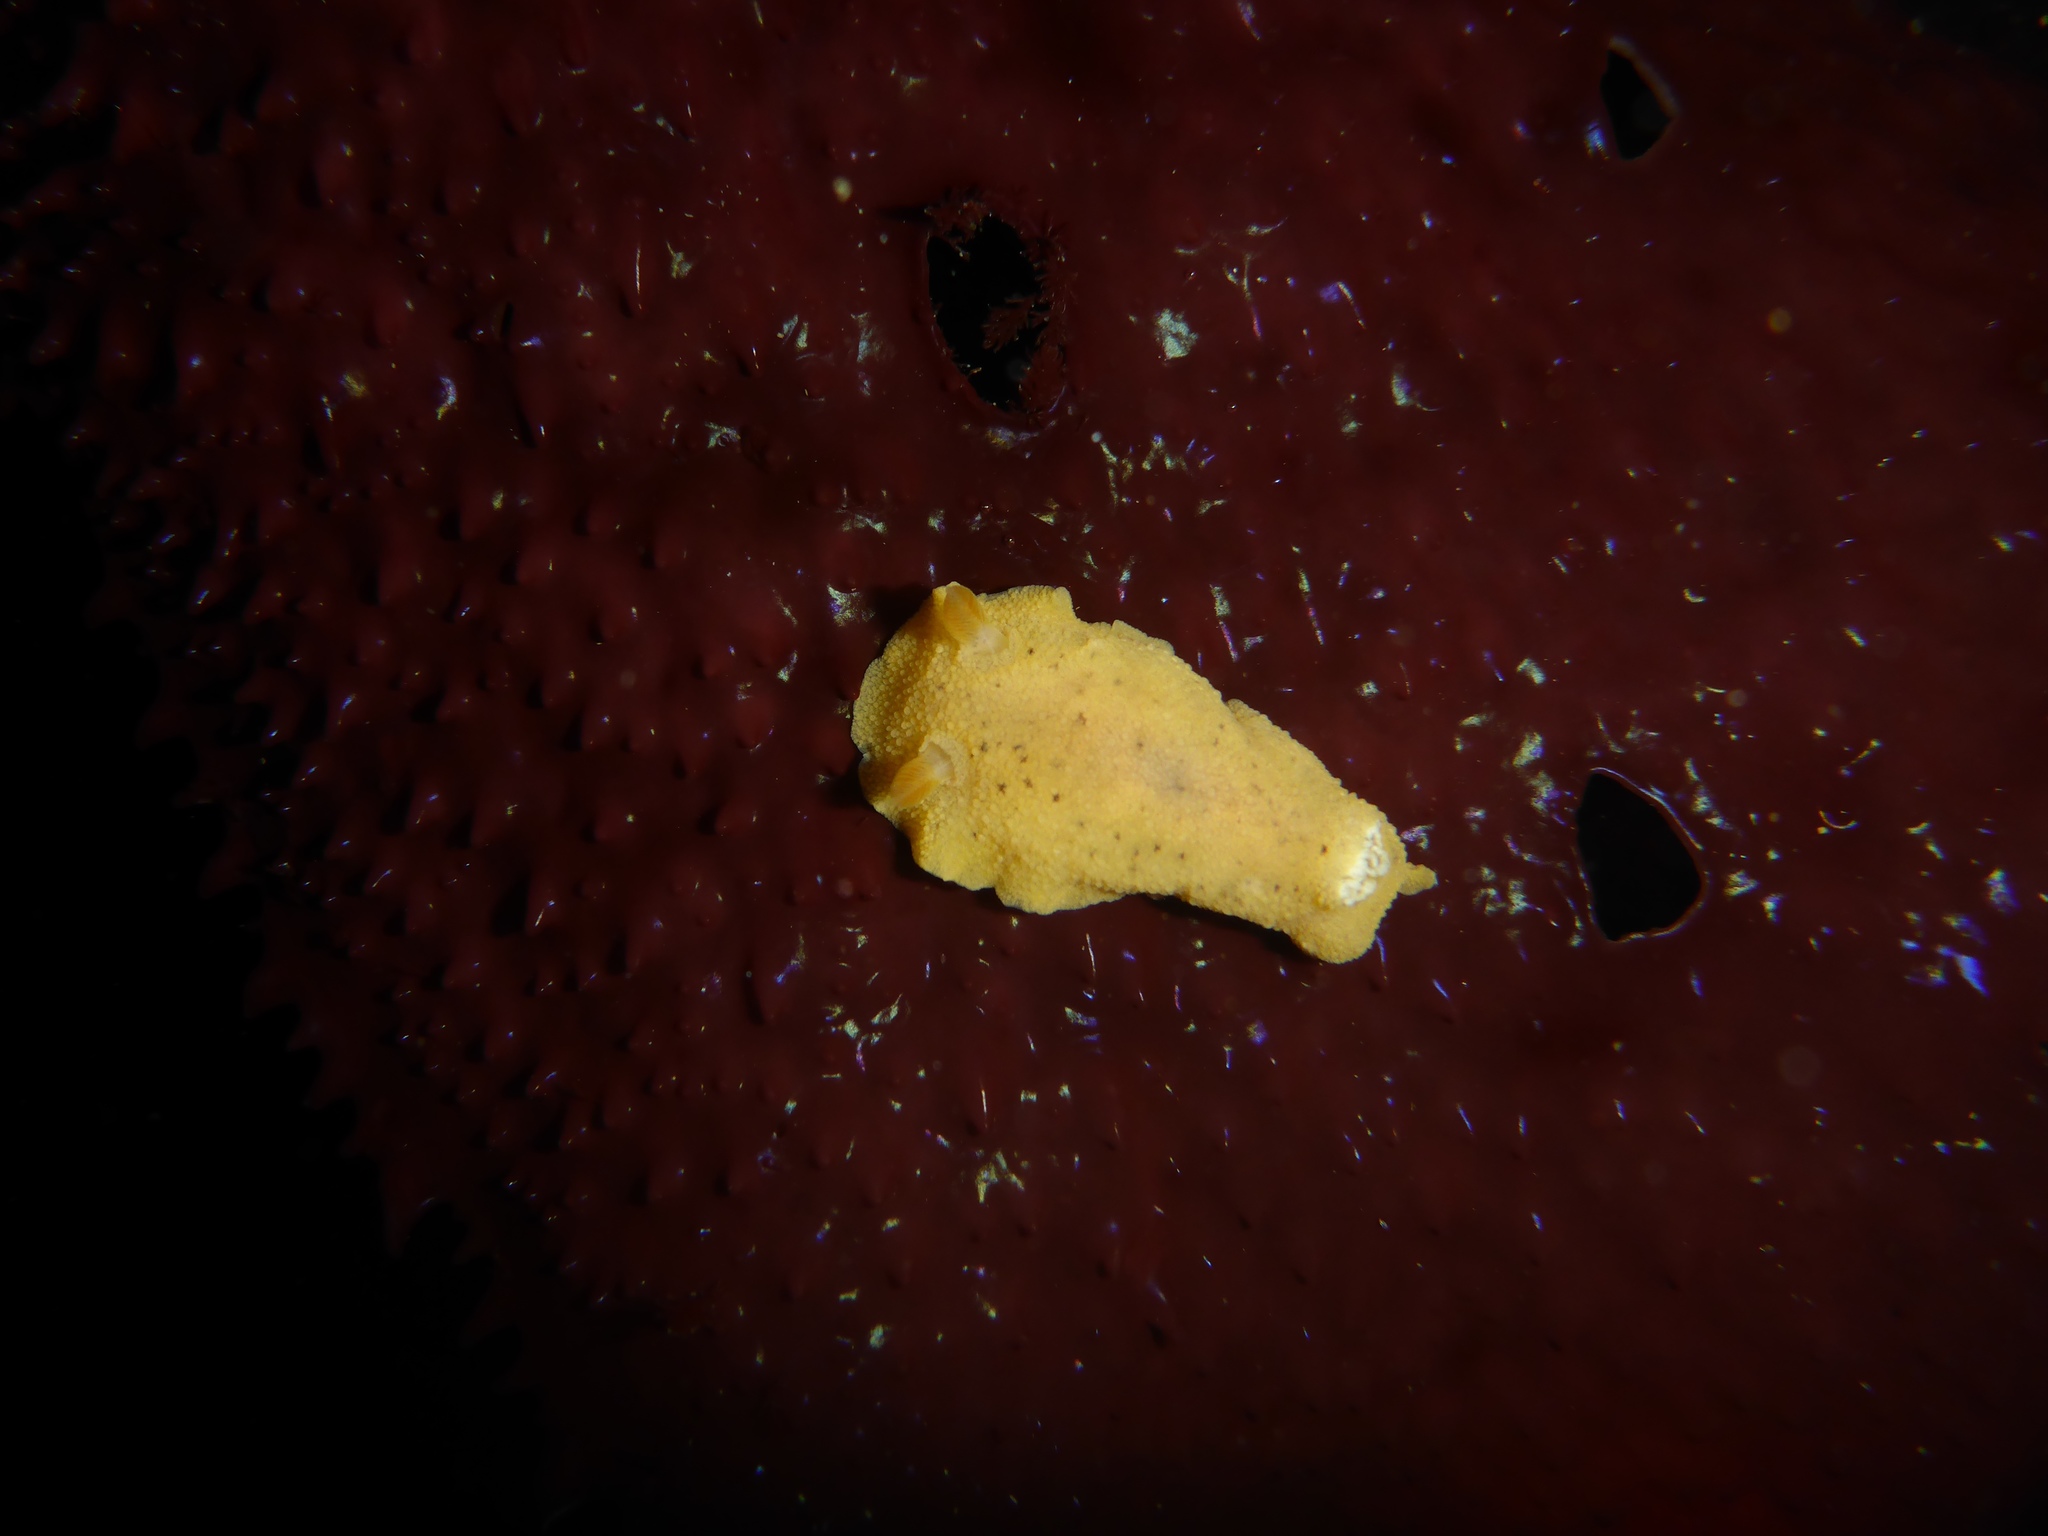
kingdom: Animalia
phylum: Mollusca
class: Gastropoda
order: Nudibranchia
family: Discodorididae
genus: Geitodoris
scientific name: Geitodoris heathi
